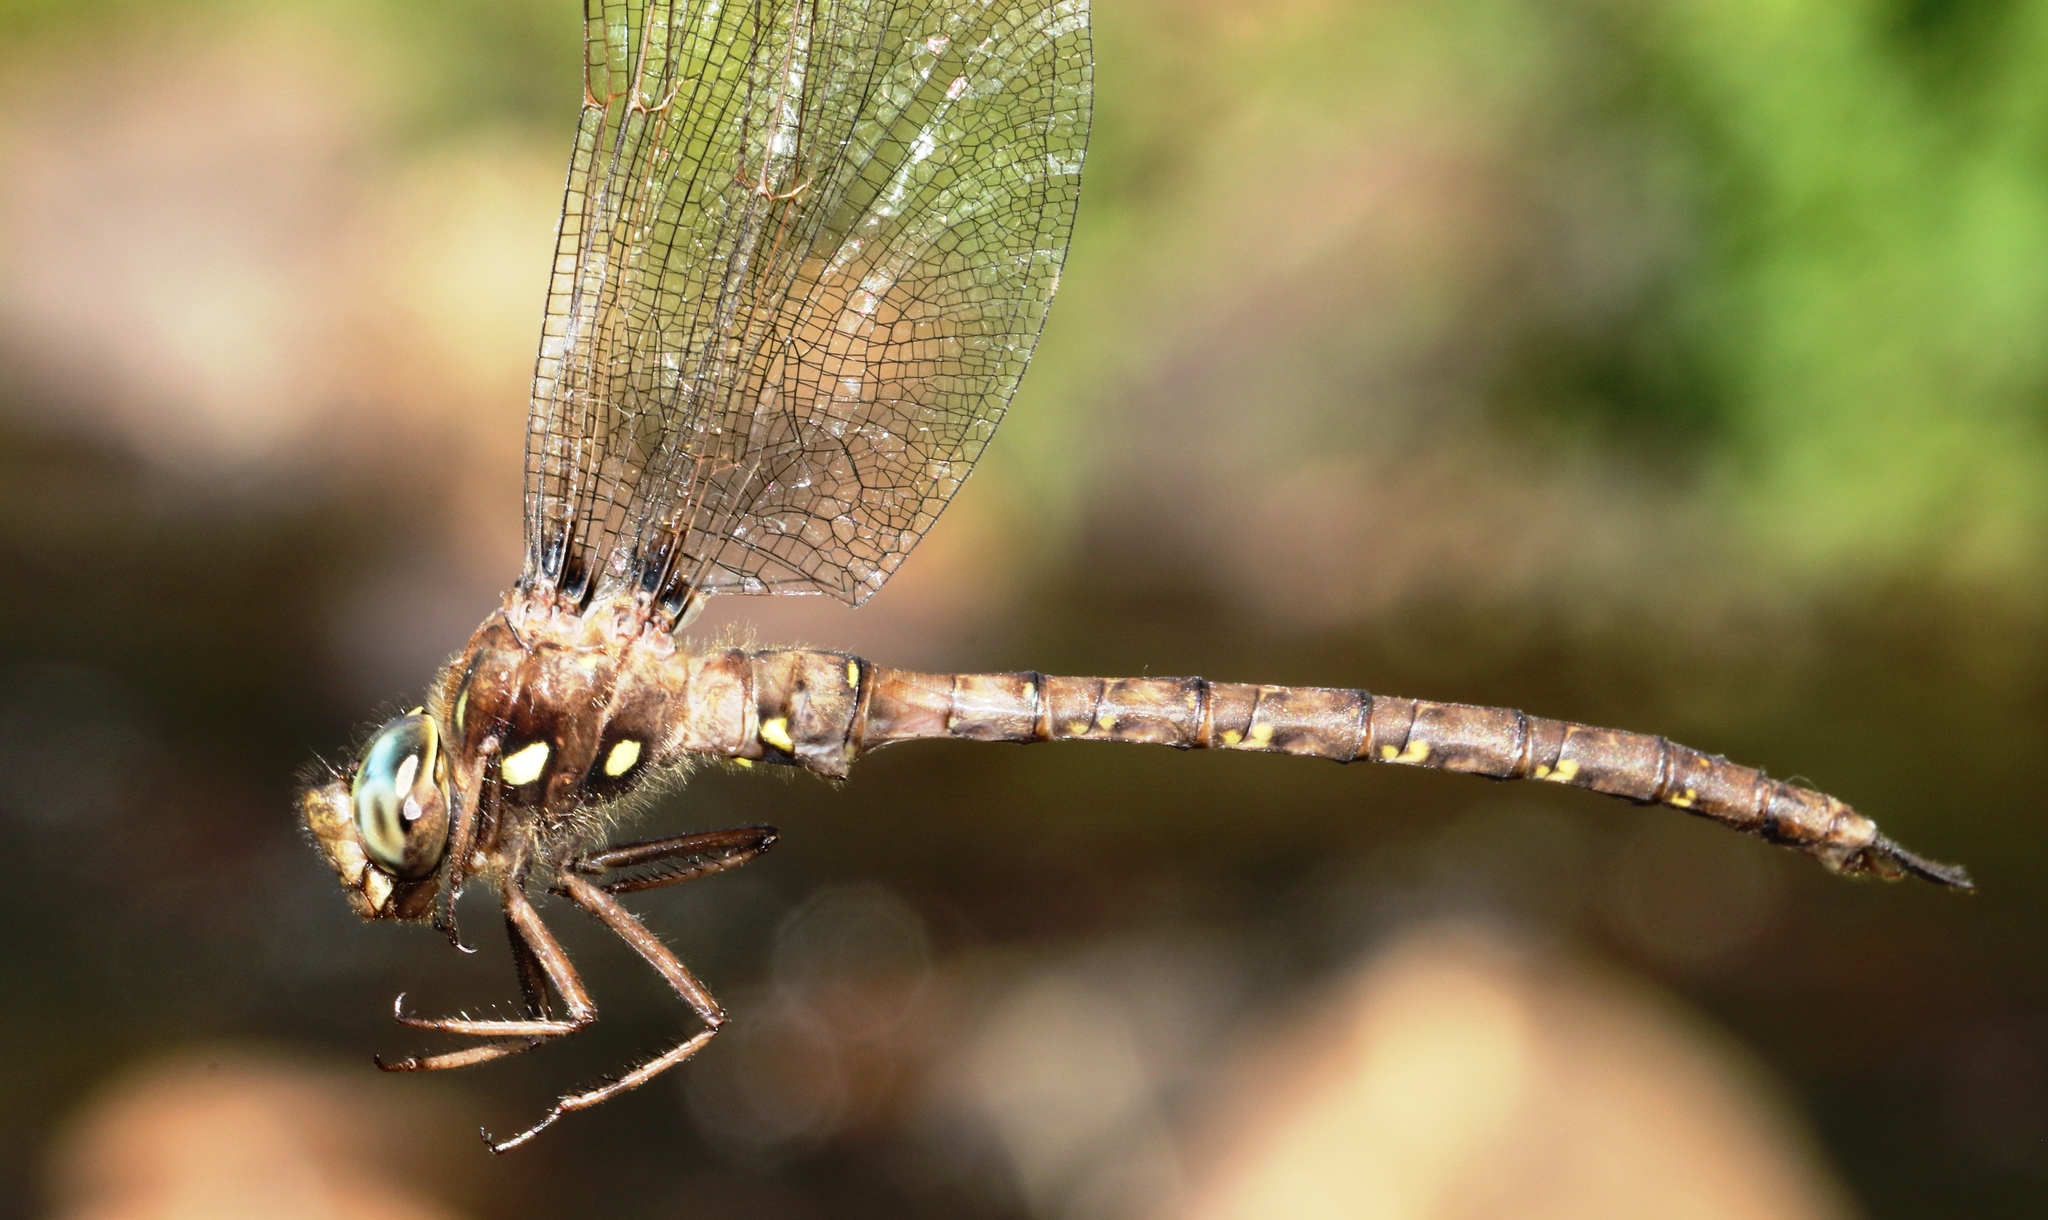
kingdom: Animalia
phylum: Arthropoda
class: Insecta
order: Odonata
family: Aeshnidae
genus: Boyeria
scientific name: Boyeria vinosa
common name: Fawn darner
